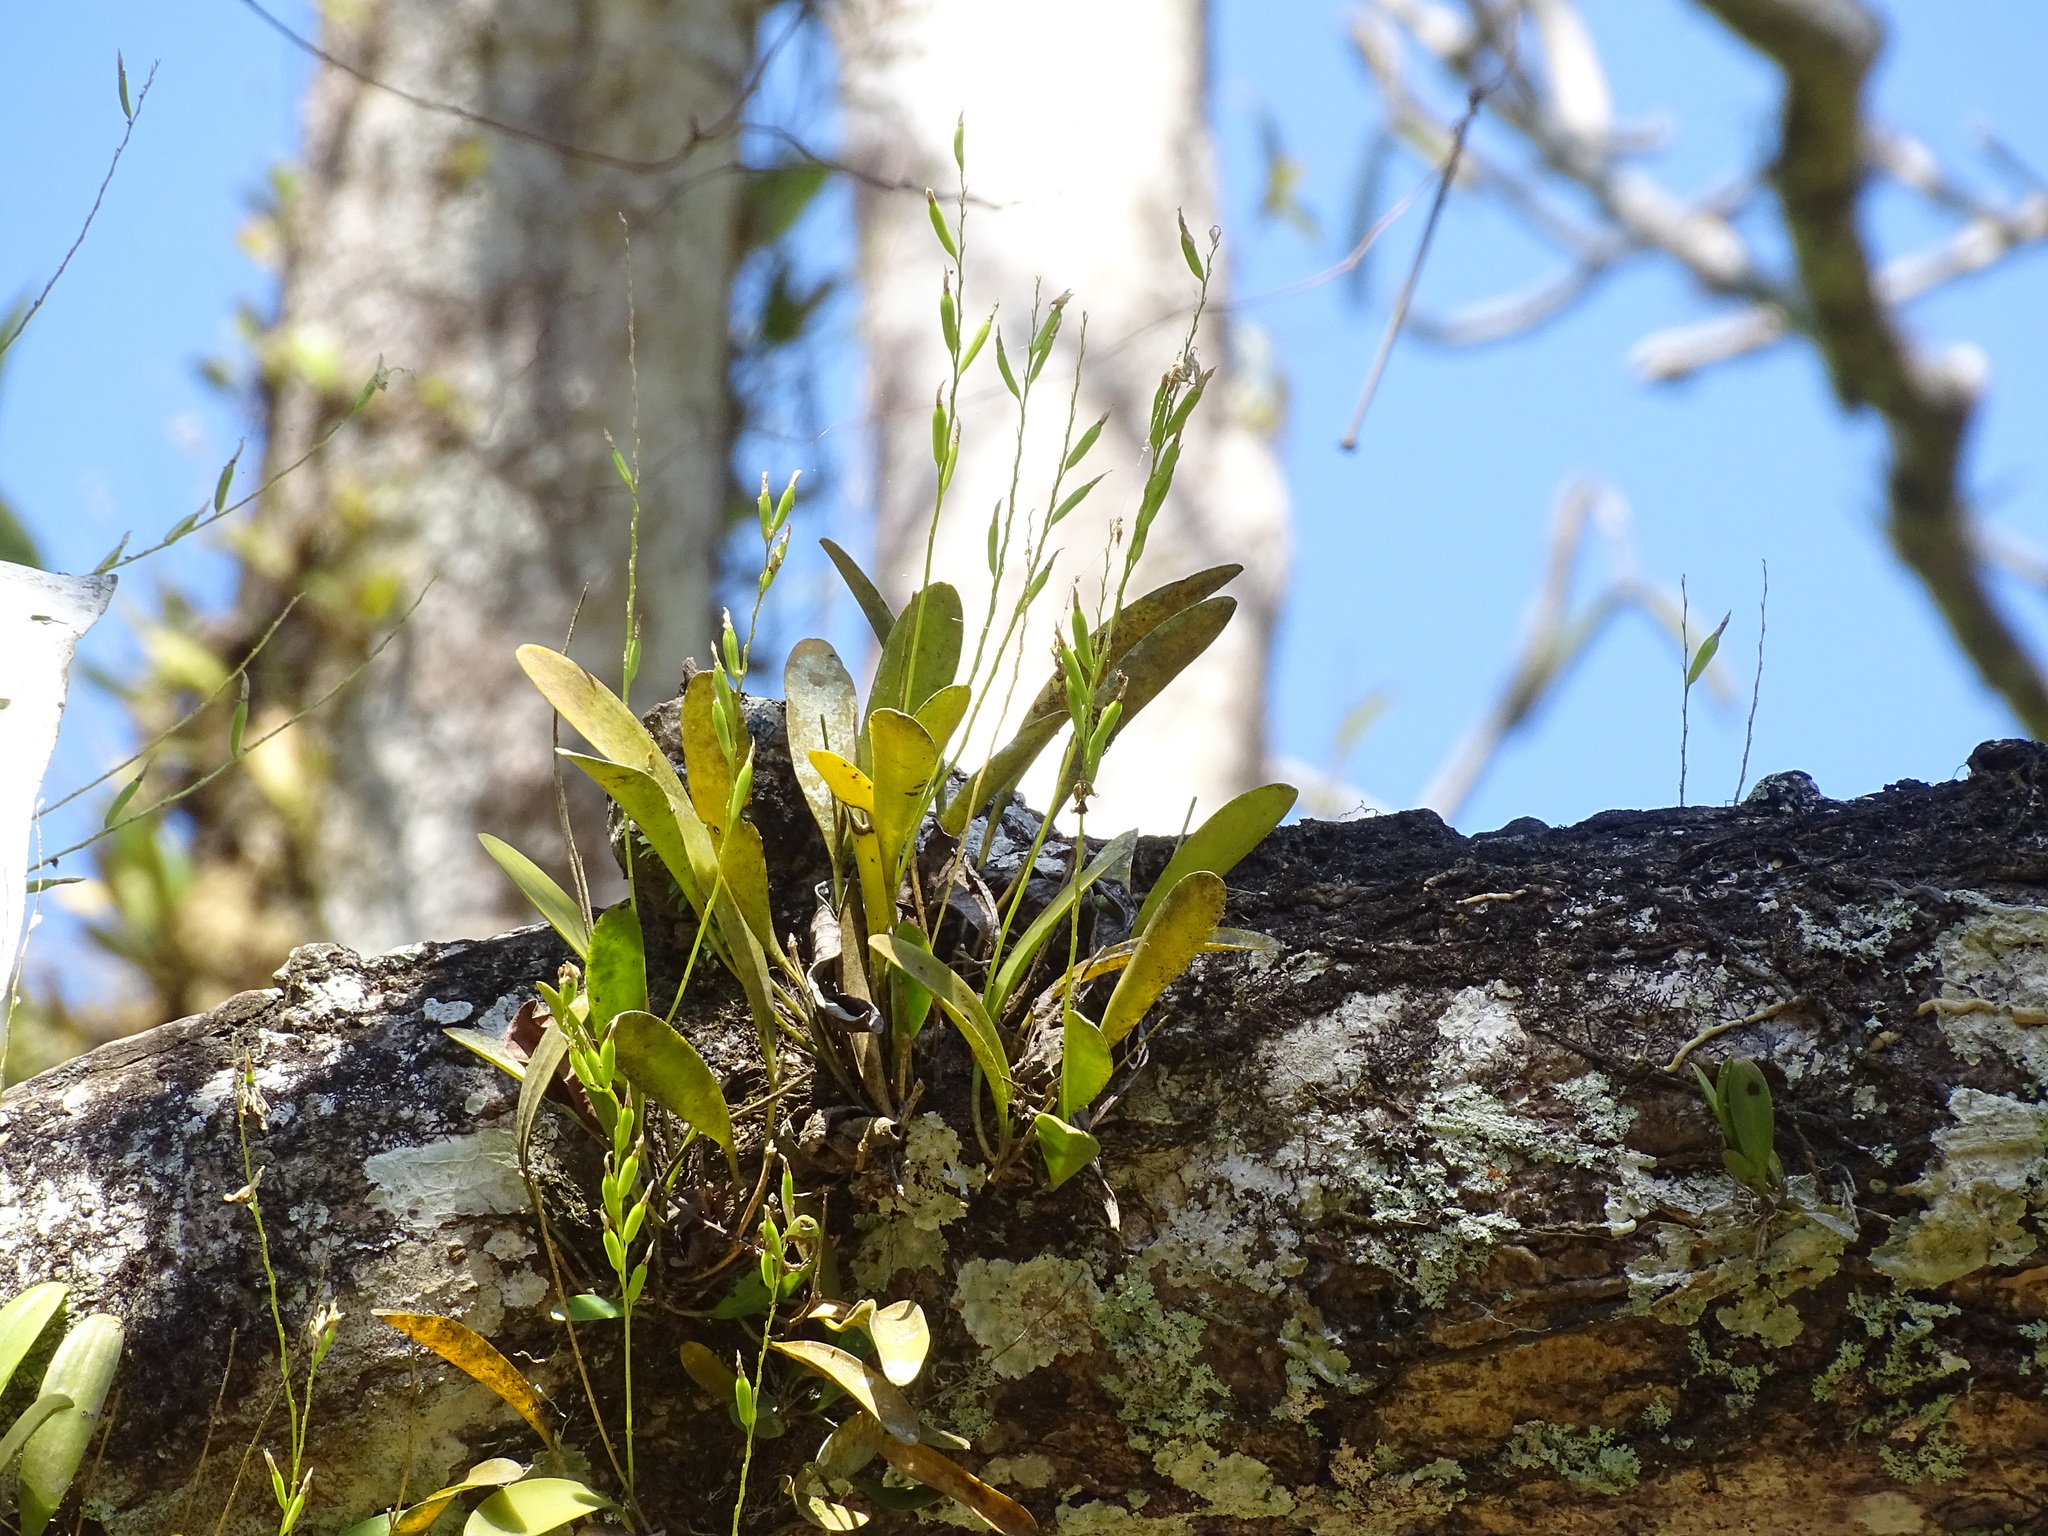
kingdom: Plantae
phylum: Tracheophyta
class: Liliopsida
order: Asparagales
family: Orchidaceae
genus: Pleurothallis
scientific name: Pleurothallis quadrifida
